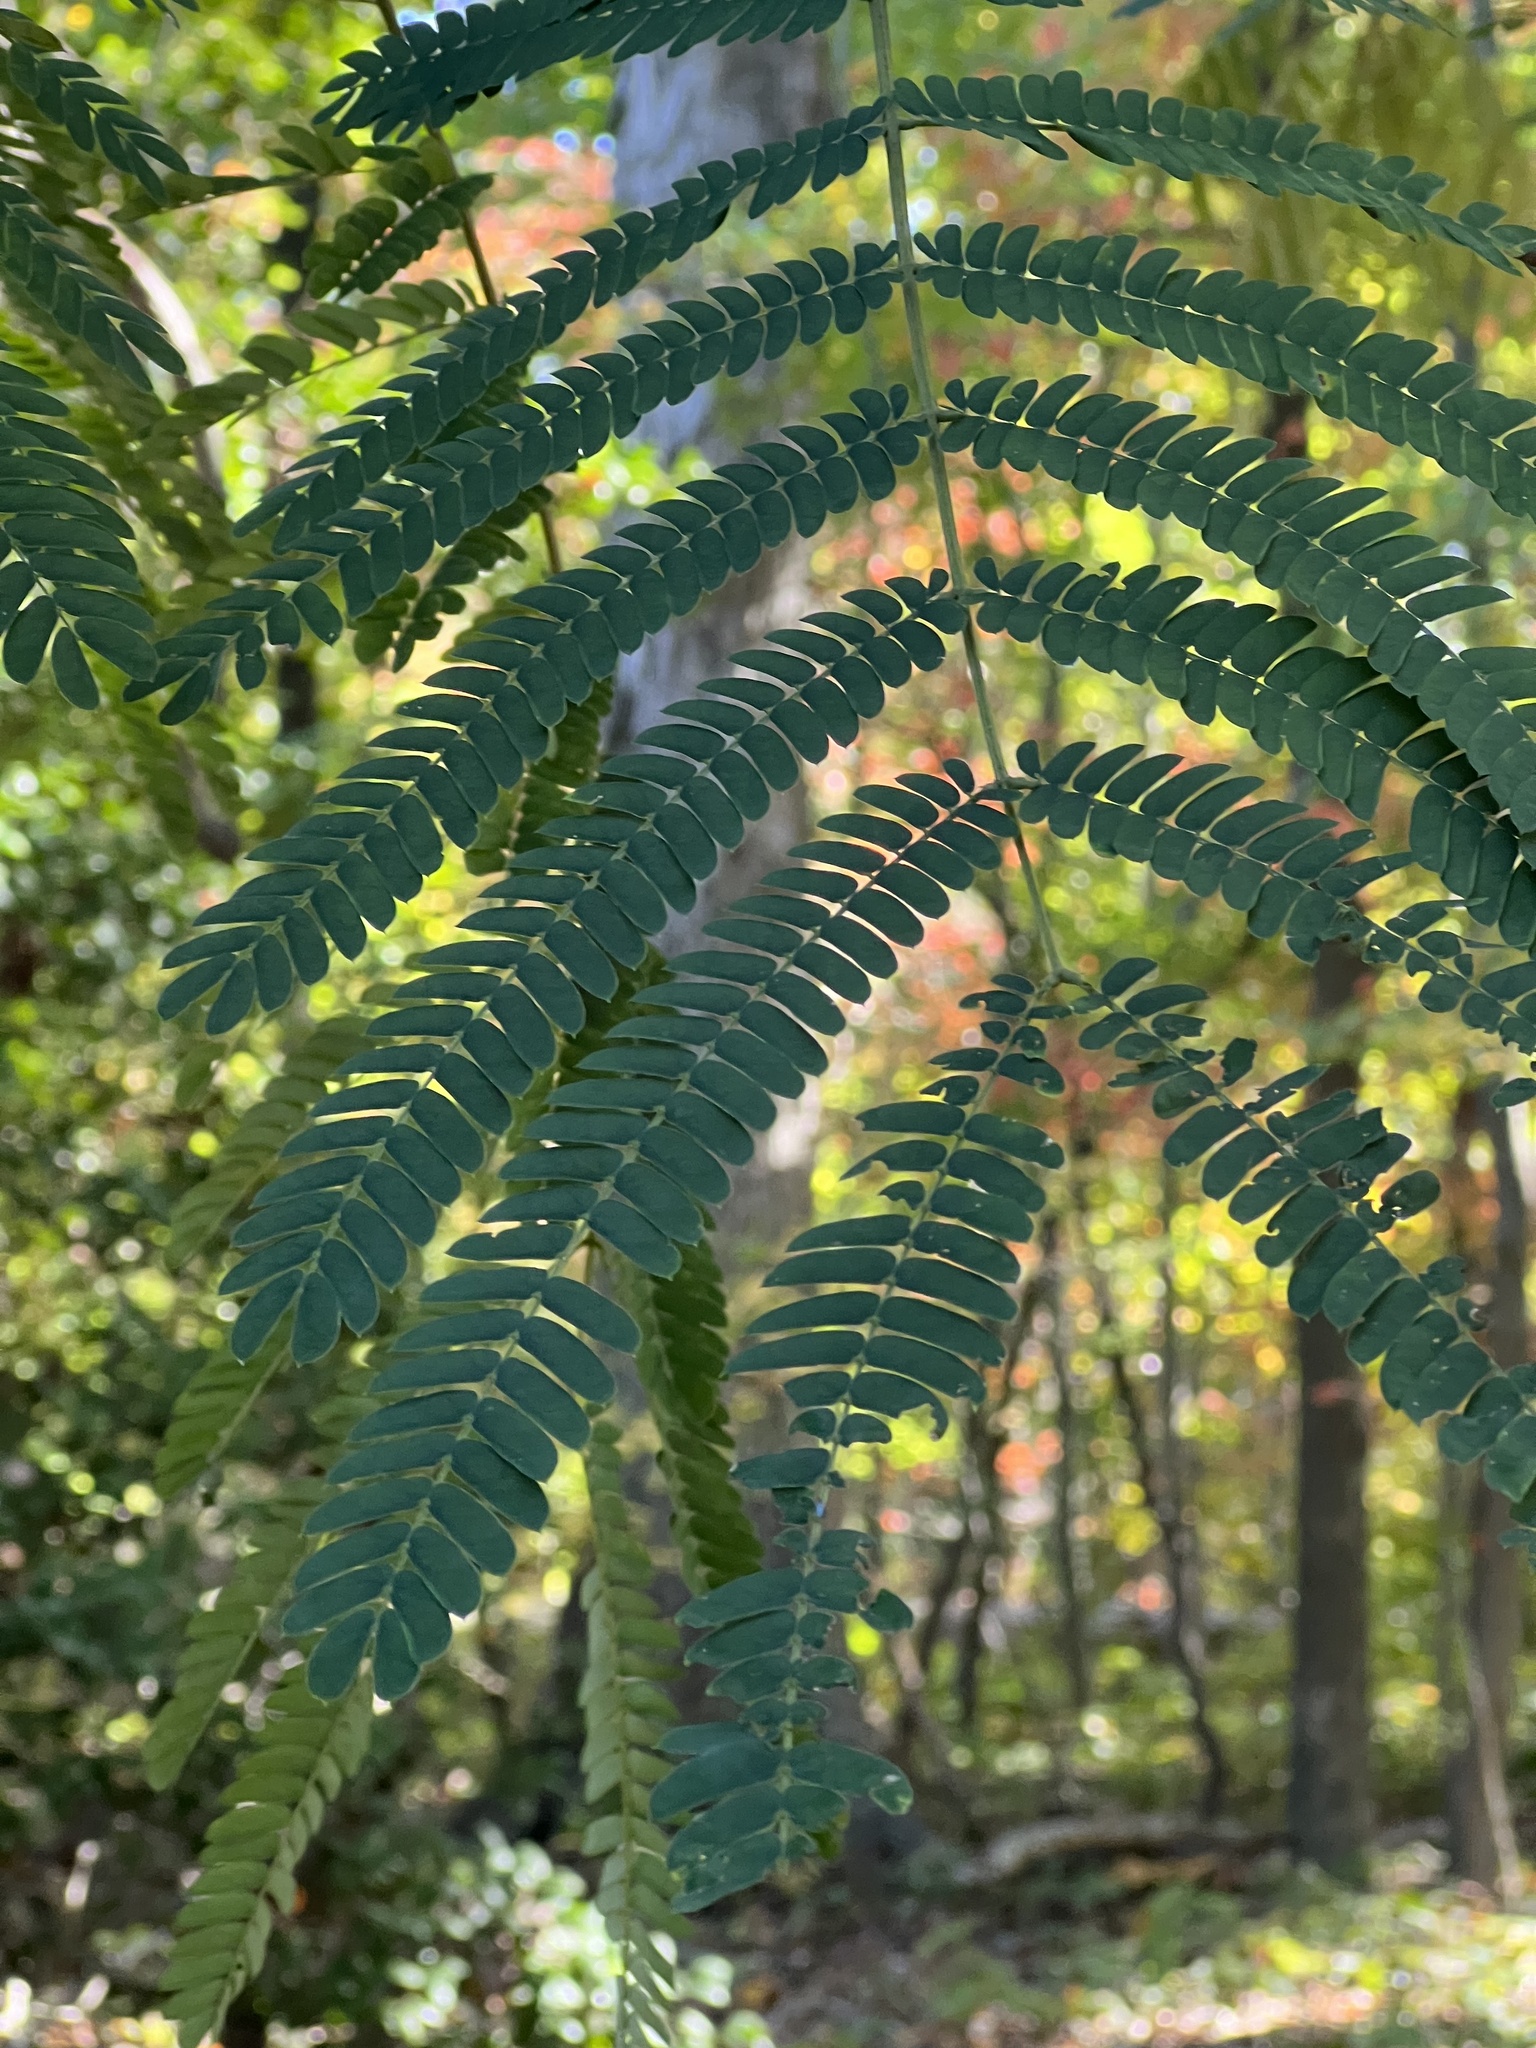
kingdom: Plantae
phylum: Tracheophyta
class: Magnoliopsida
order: Fabales
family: Fabaceae
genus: Albizia
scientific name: Albizia julibrissin
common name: Silktree
